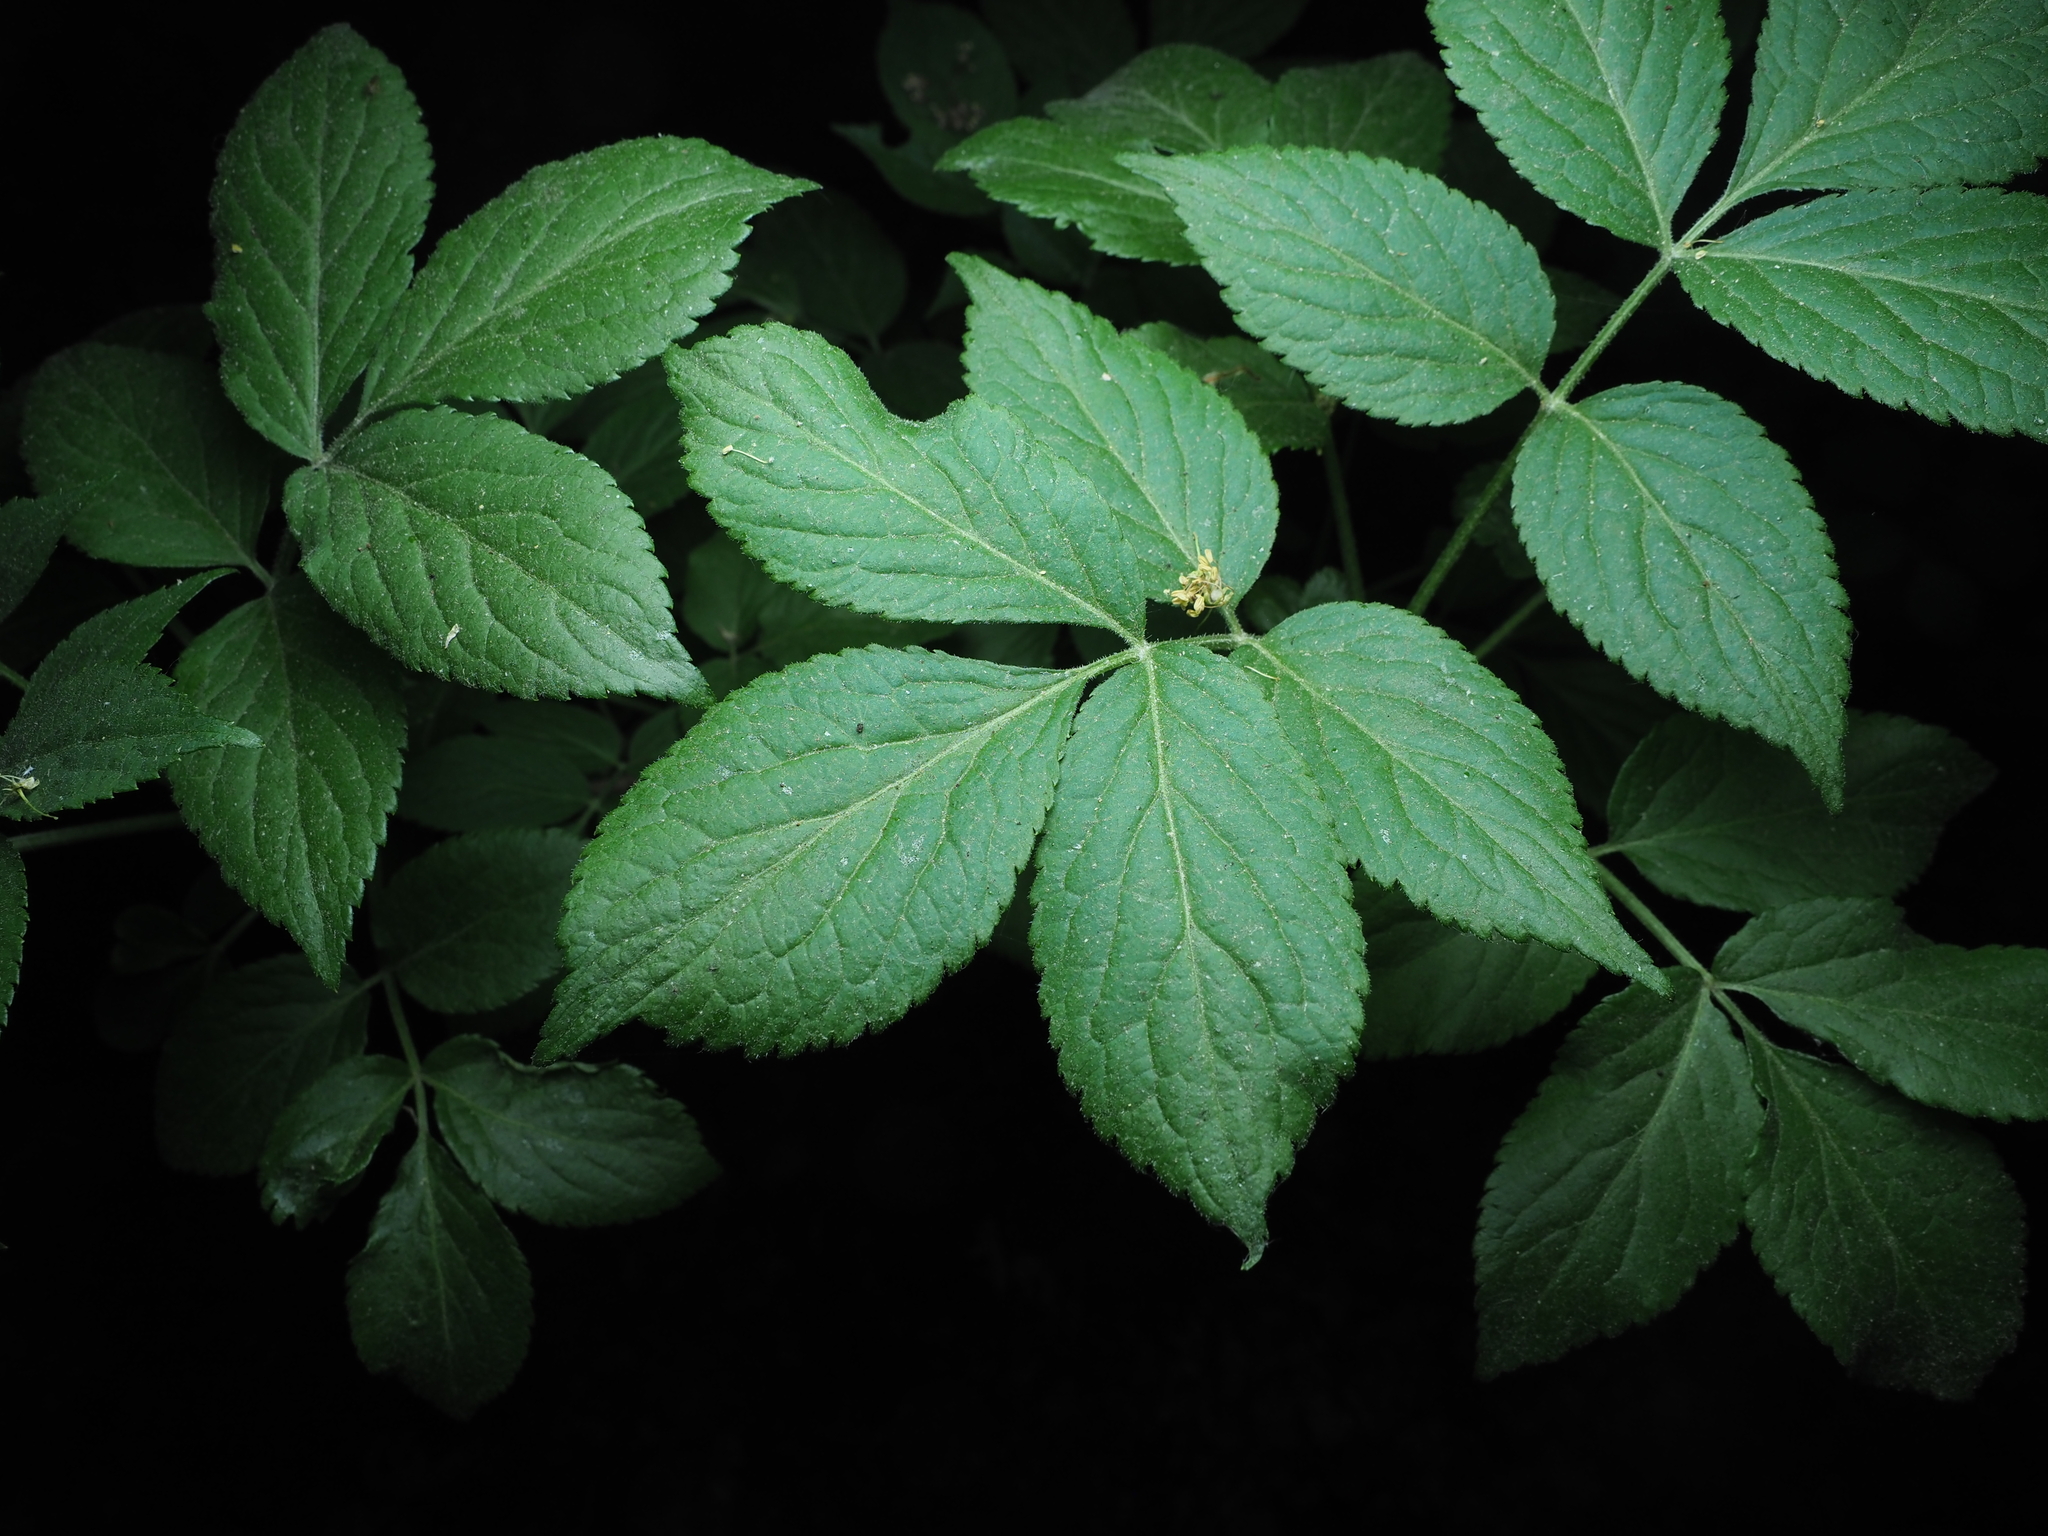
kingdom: Plantae
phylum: Tracheophyta
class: Magnoliopsida
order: Dipsacales
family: Viburnaceae
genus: Sambucus
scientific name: Sambucus nigra
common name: Elder
